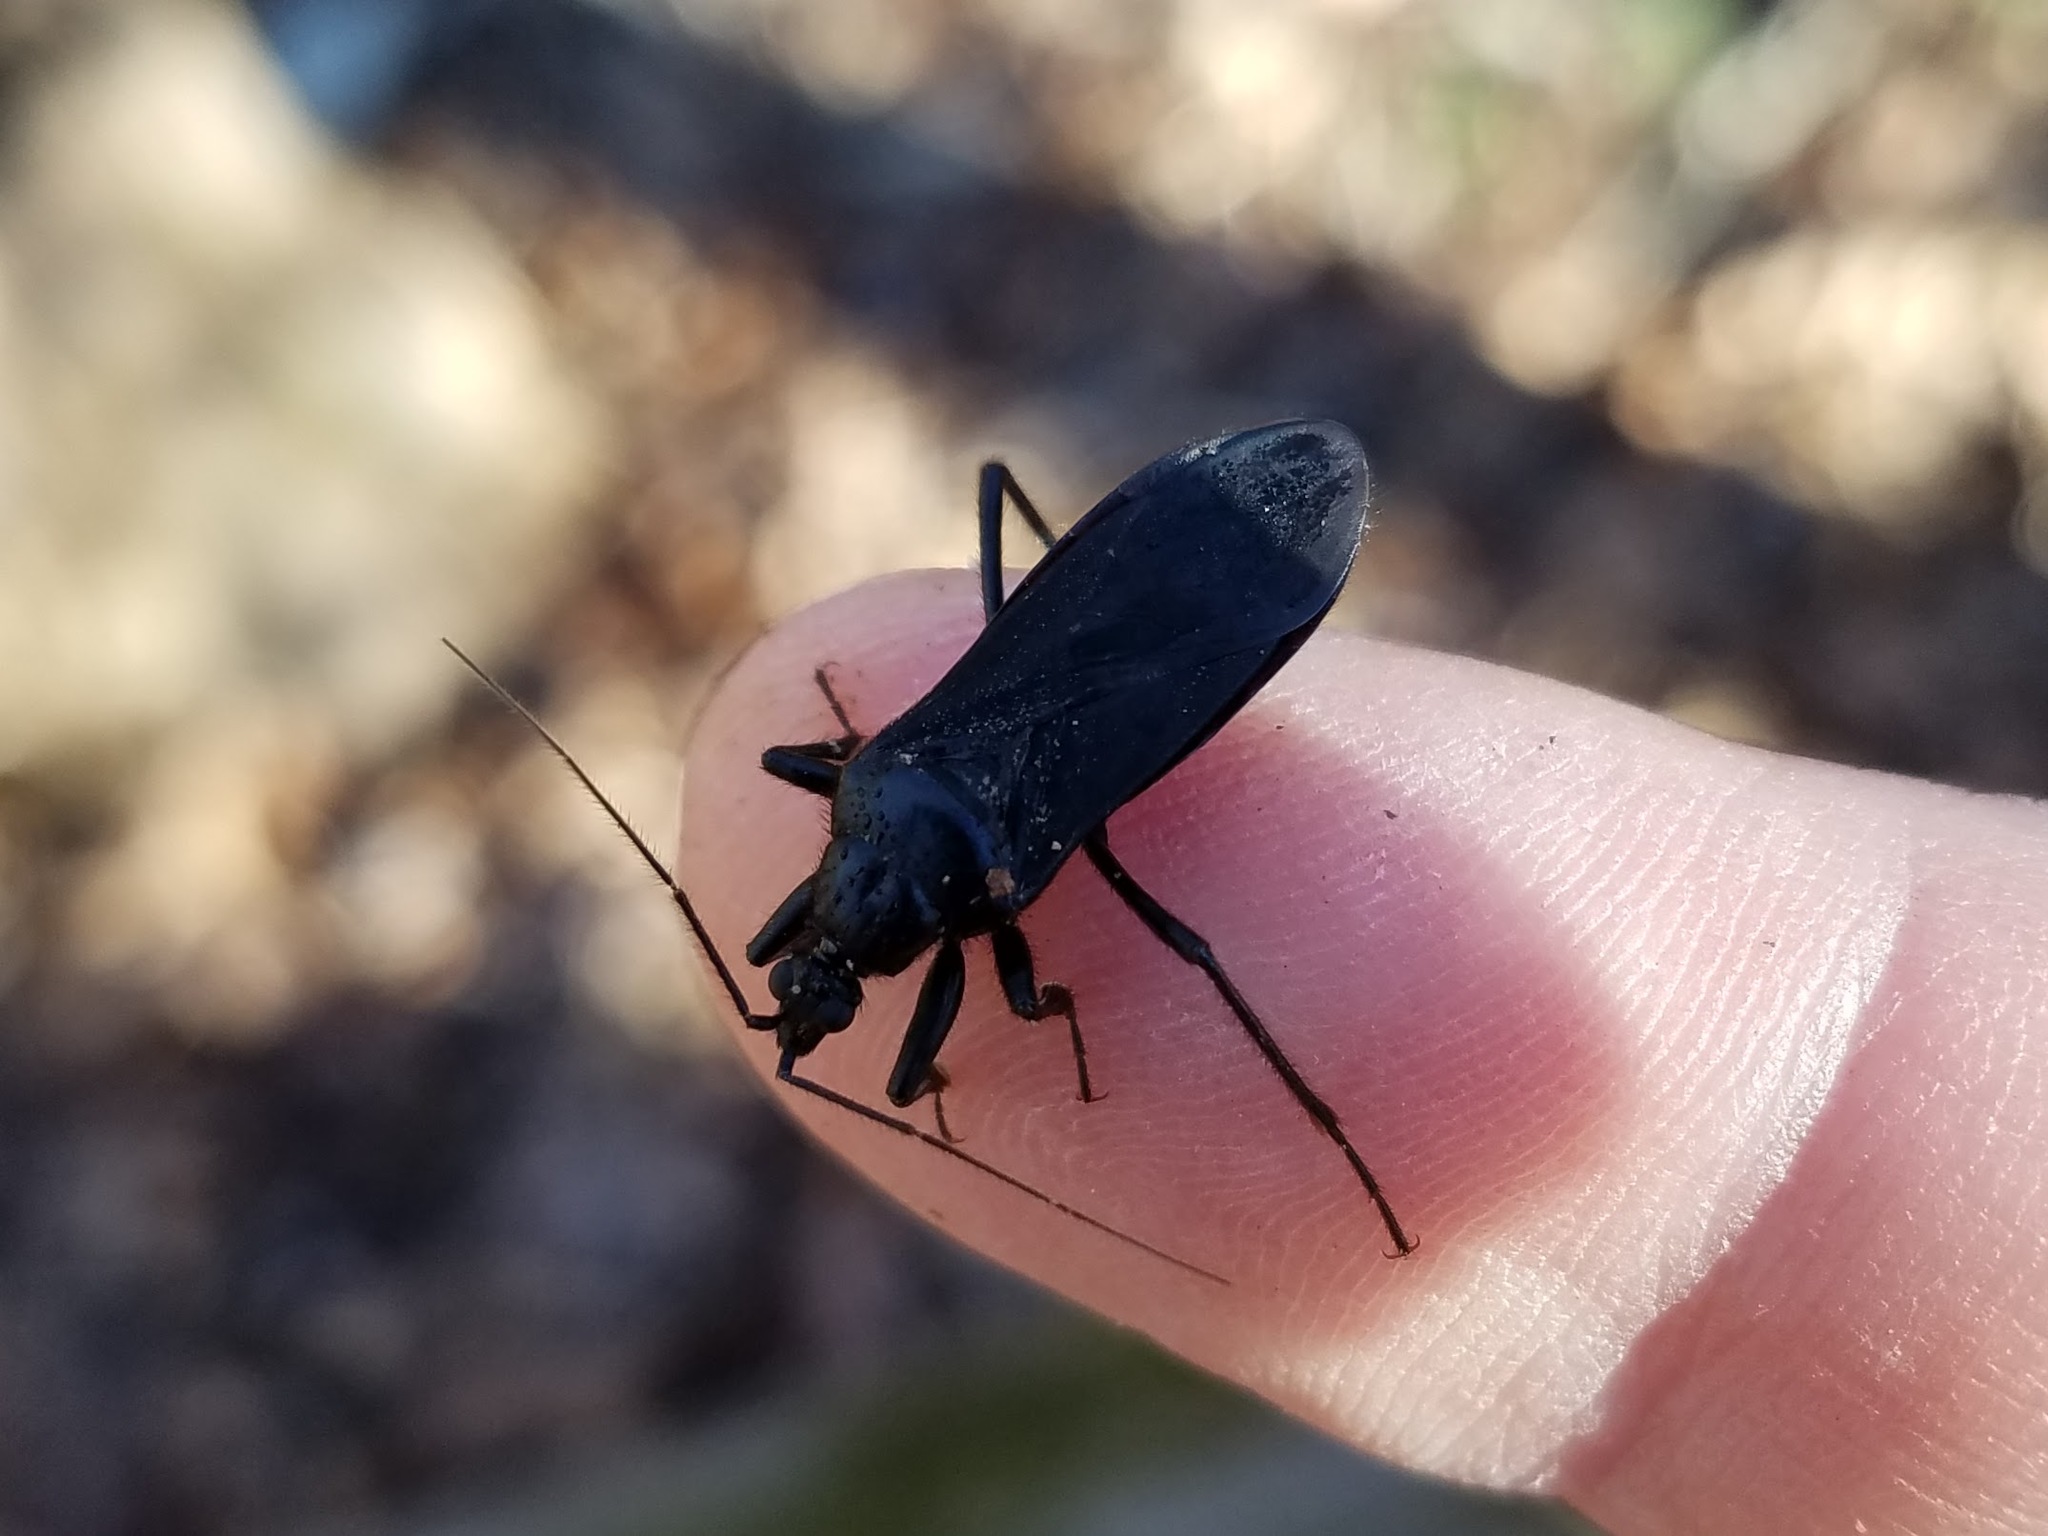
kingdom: Animalia
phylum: Arthropoda
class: Insecta
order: Hemiptera
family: Reduviidae
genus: Melanolestes
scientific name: Melanolestes picipes
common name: Assassin bug
